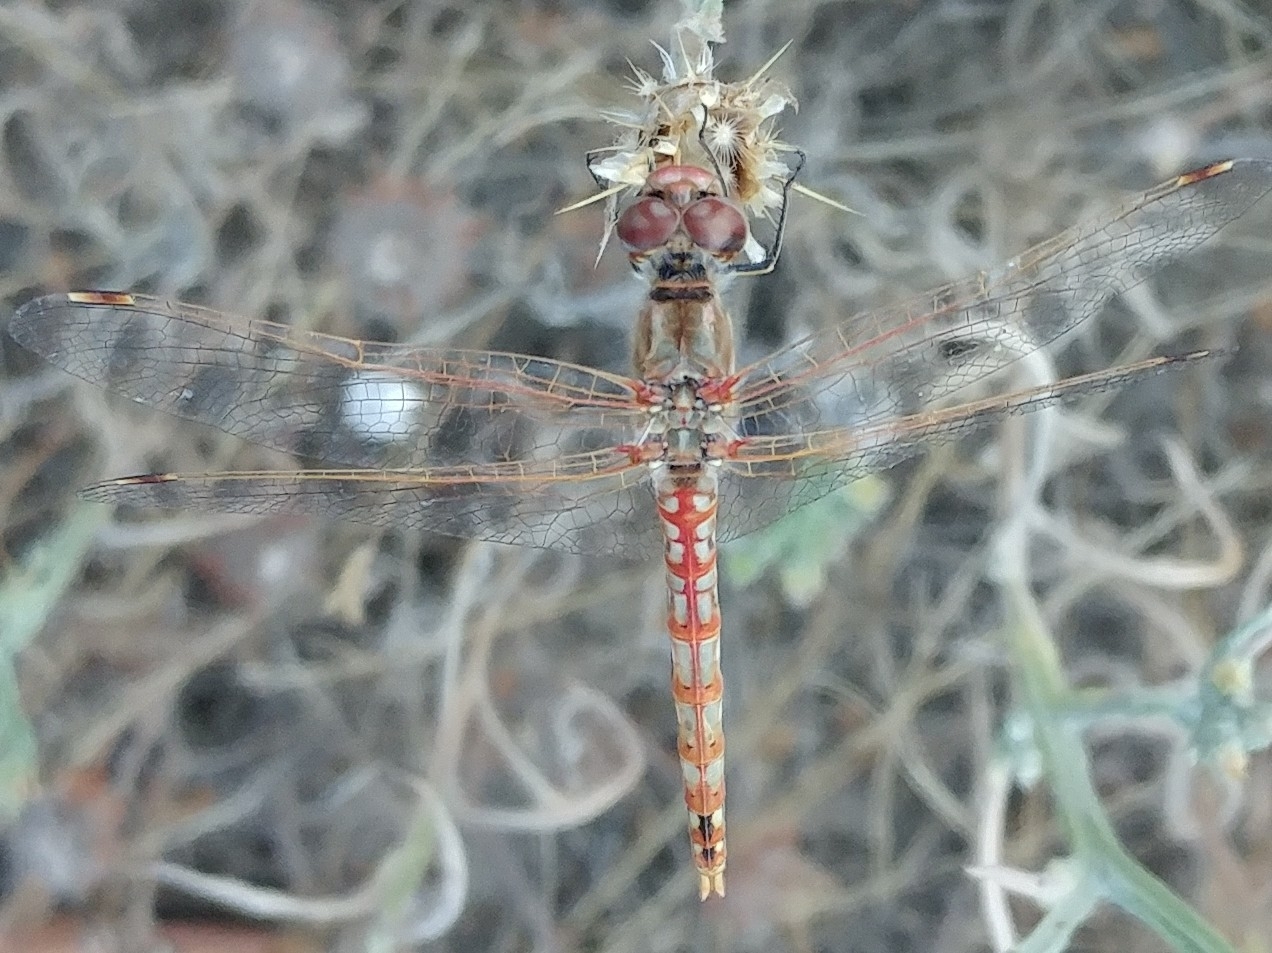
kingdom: Animalia
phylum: Arthropoda
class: Insecta
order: Odonata
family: Libellulidae
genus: Sympetrum
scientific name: Sympetrum corruptum
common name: Variegated meadowhawk
